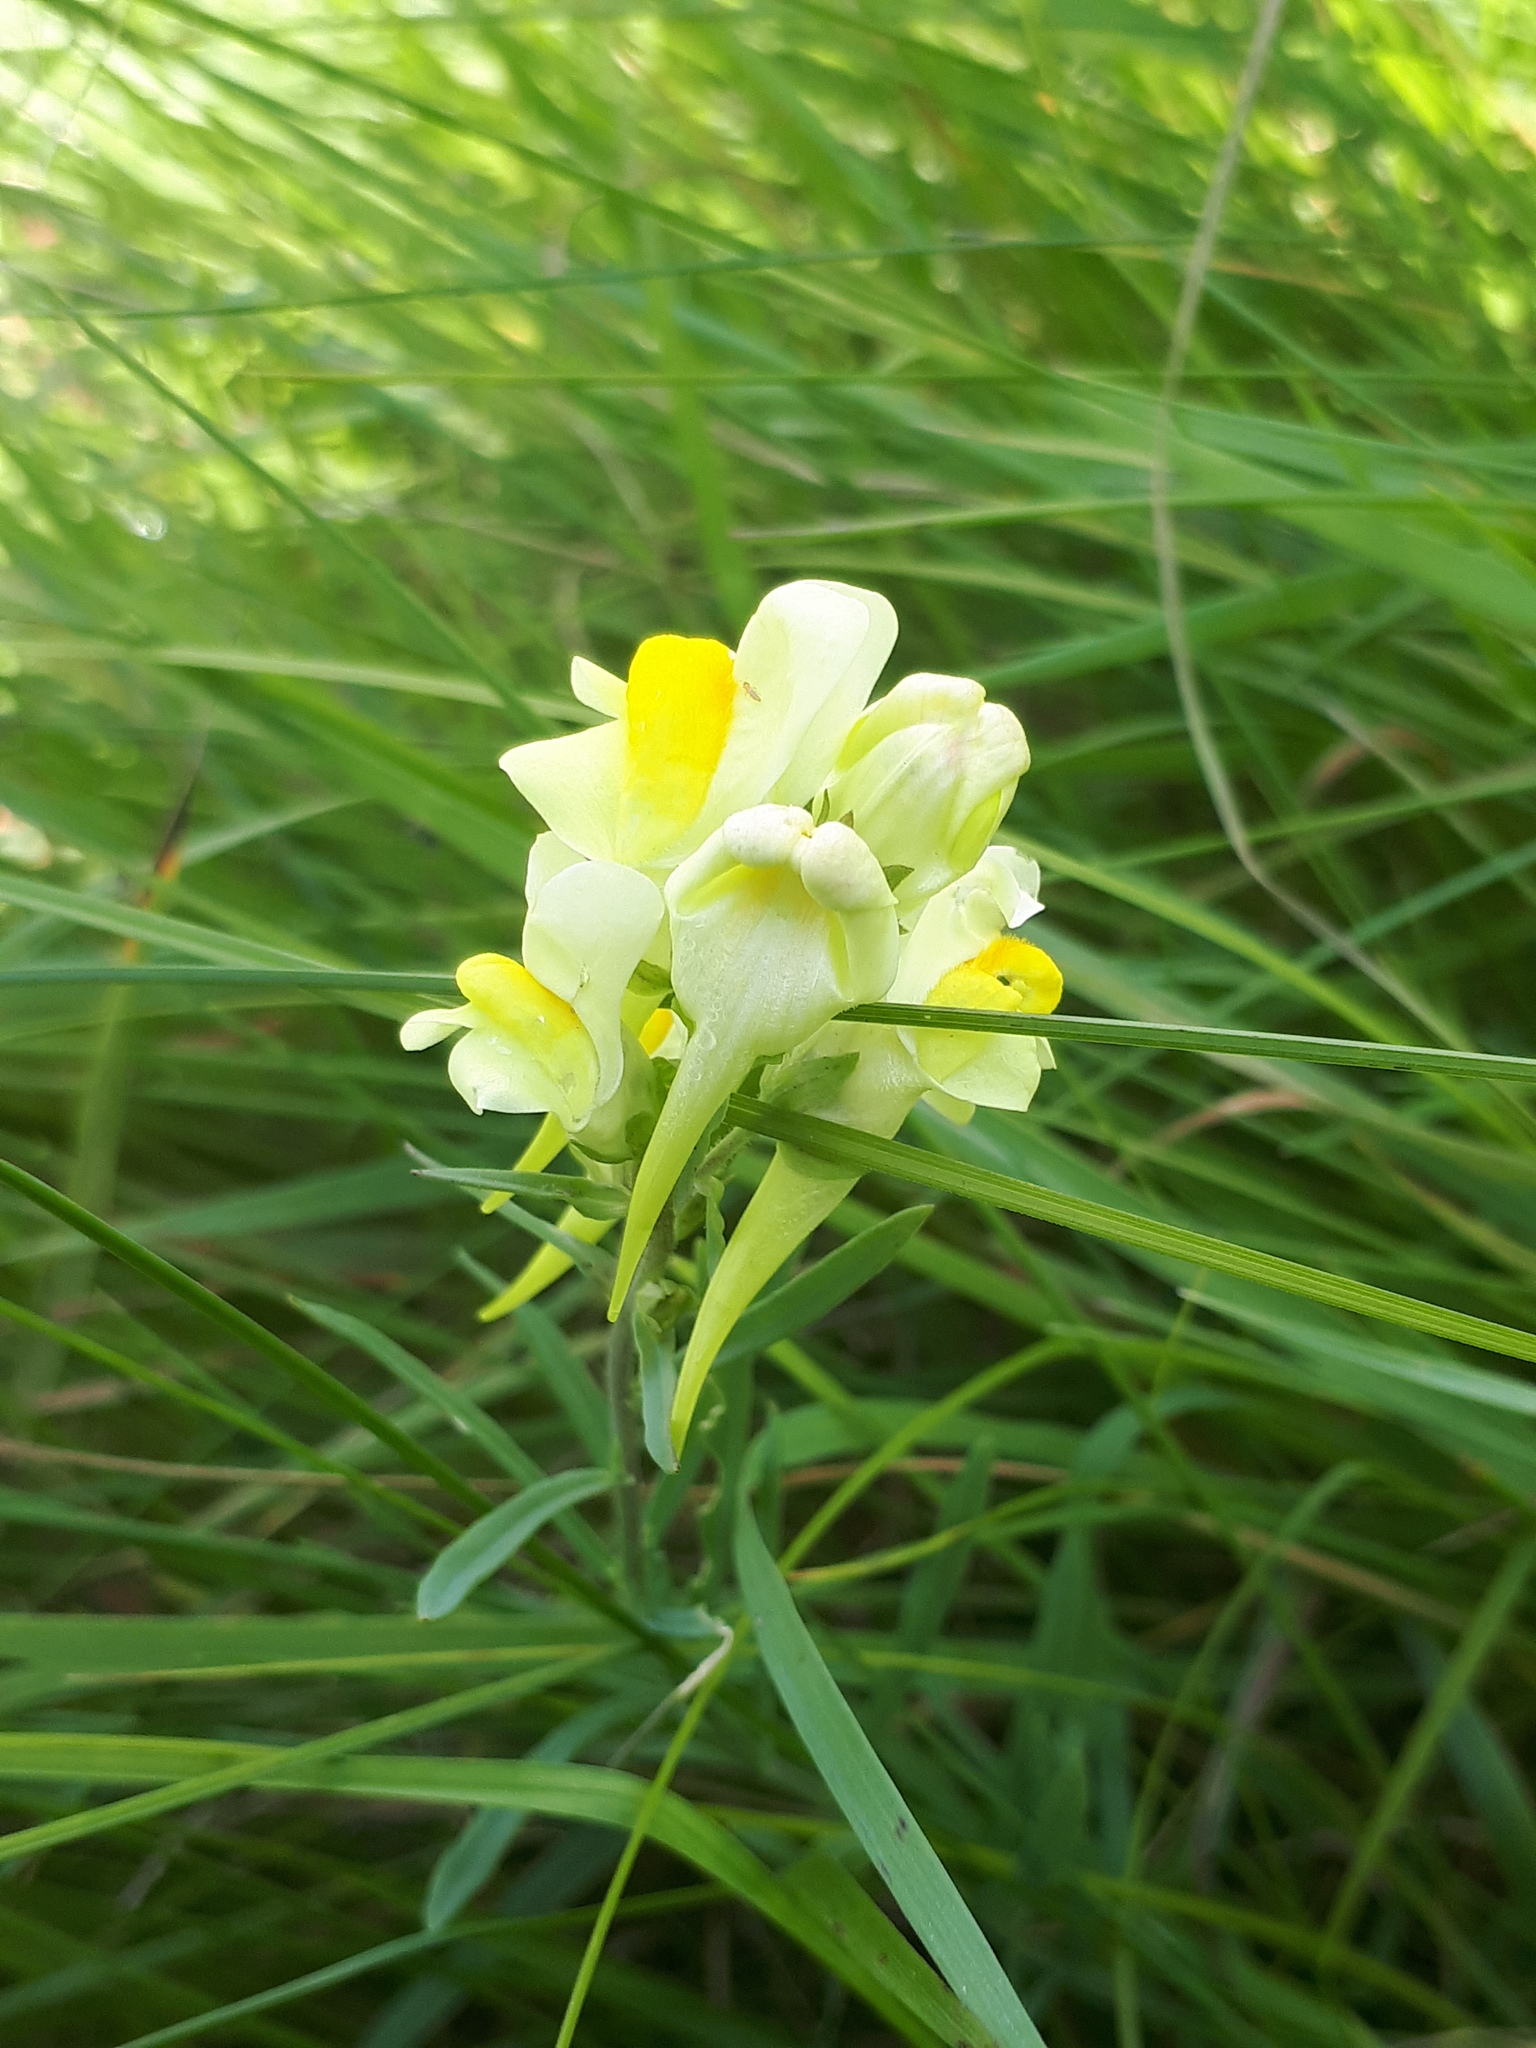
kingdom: Plantae
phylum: Tracheophyta
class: Magnoliopsida
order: Lamiales
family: Plantaginaceae
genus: Linaria
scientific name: Linaria vulgaris
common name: Butter and eggs
